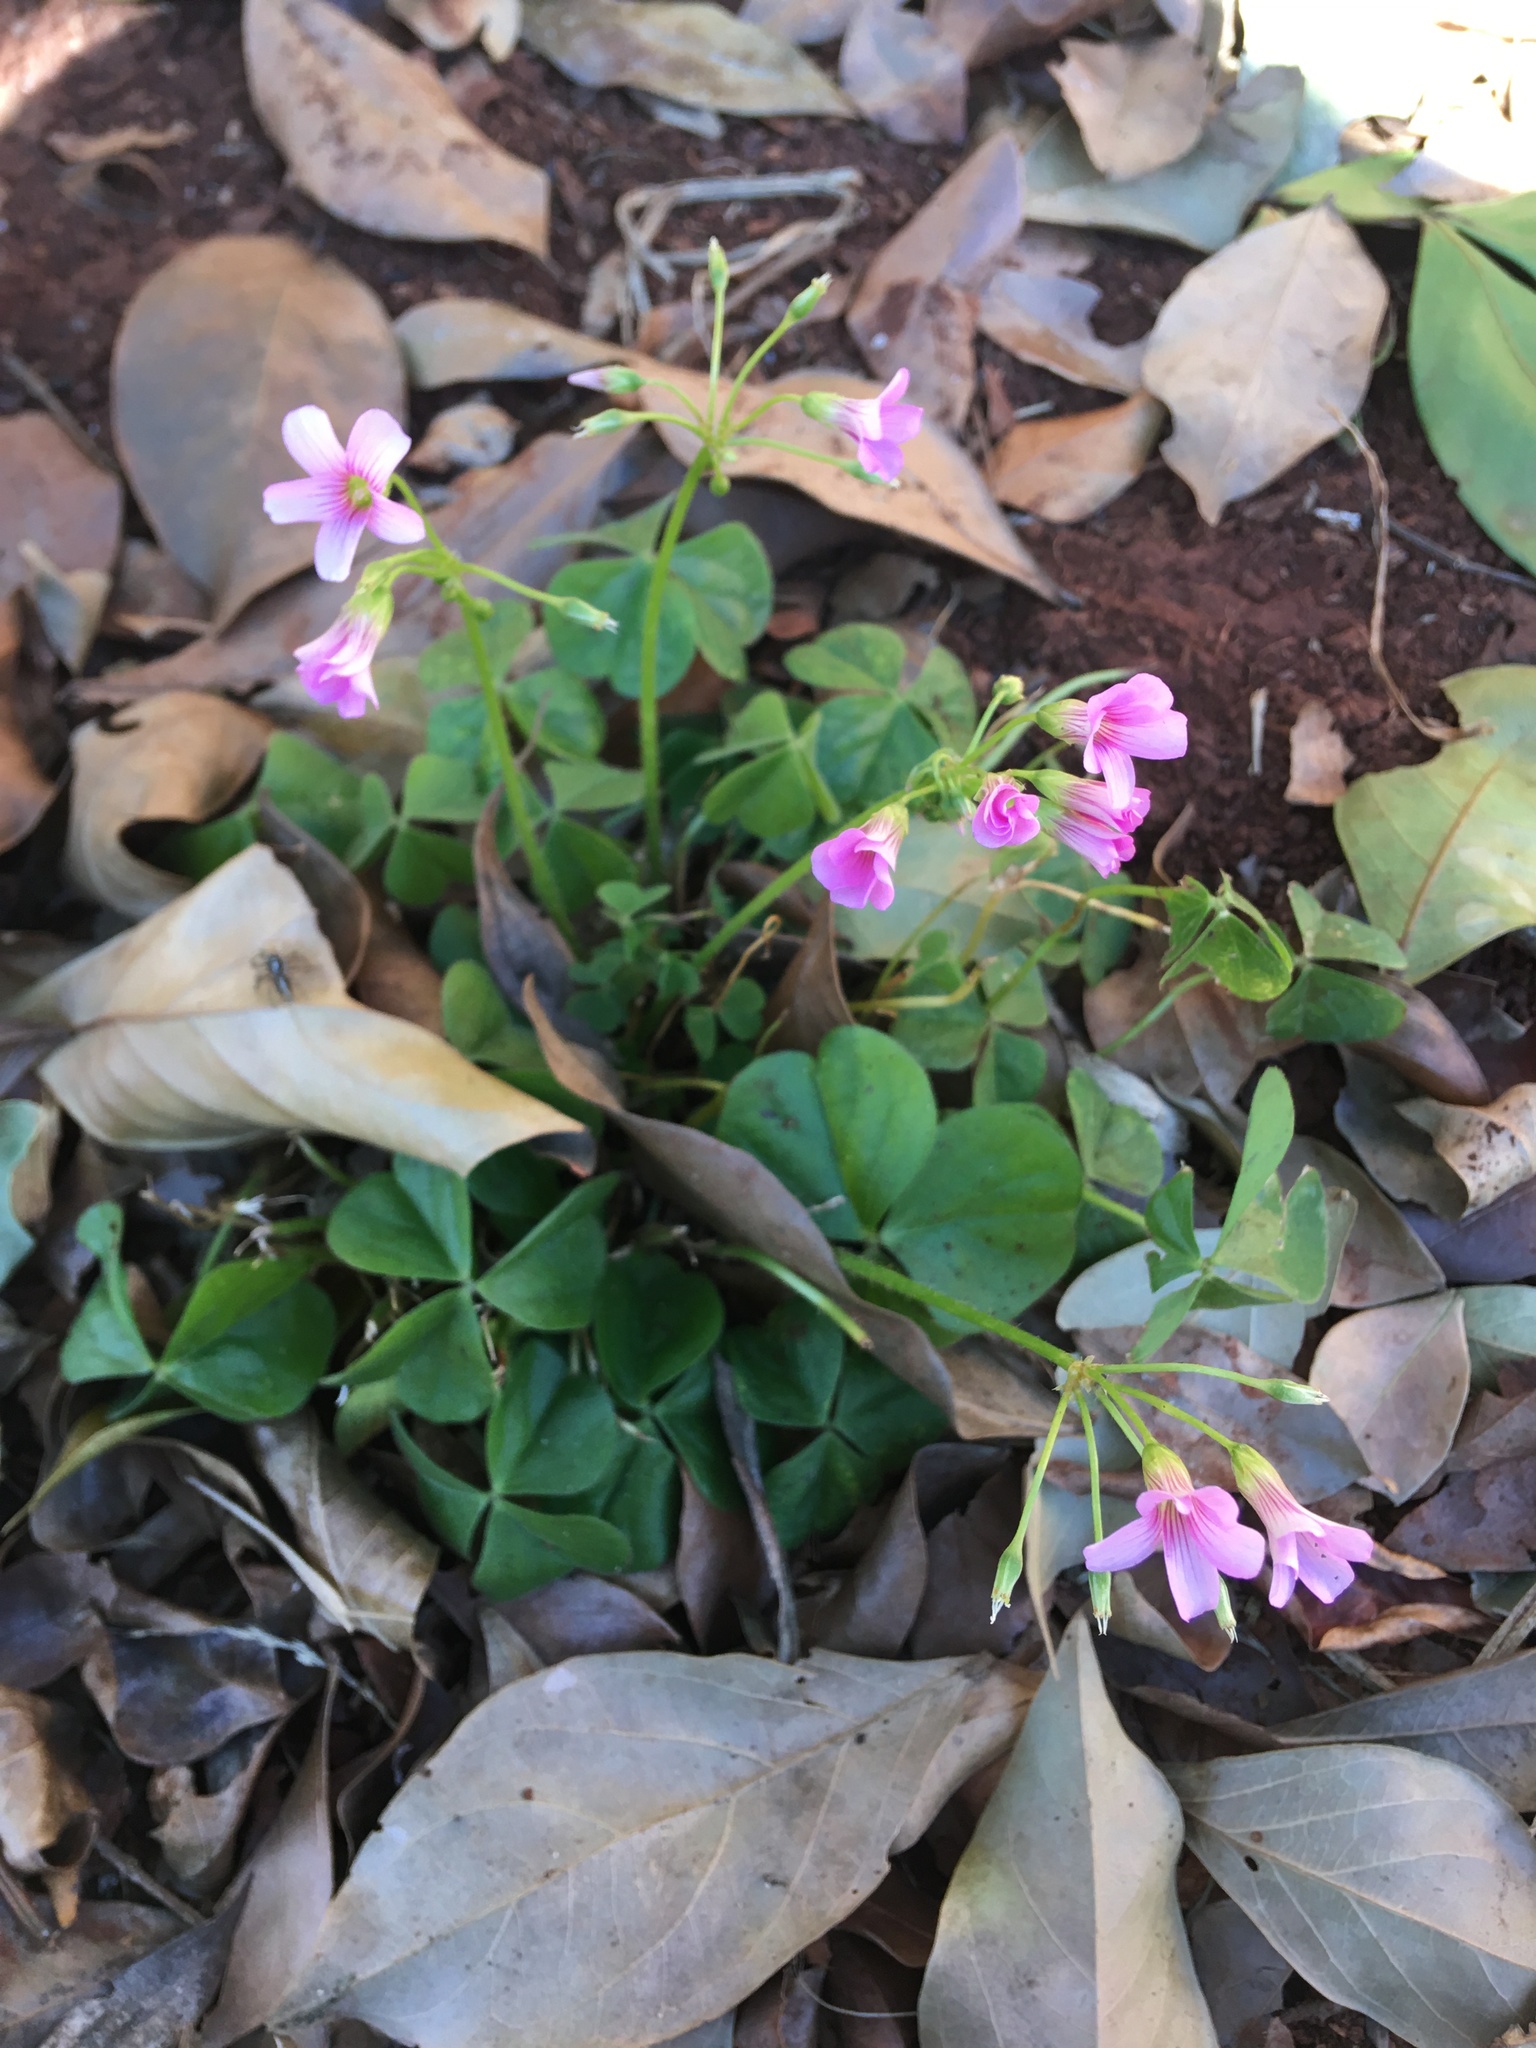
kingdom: Plantae
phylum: Tracheophyta
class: Magnoliopsida
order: Oxalidales
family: Oxalidaceae
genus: Oxalis
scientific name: Oxalis debilis
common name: Large-flowered pink-sorrel
